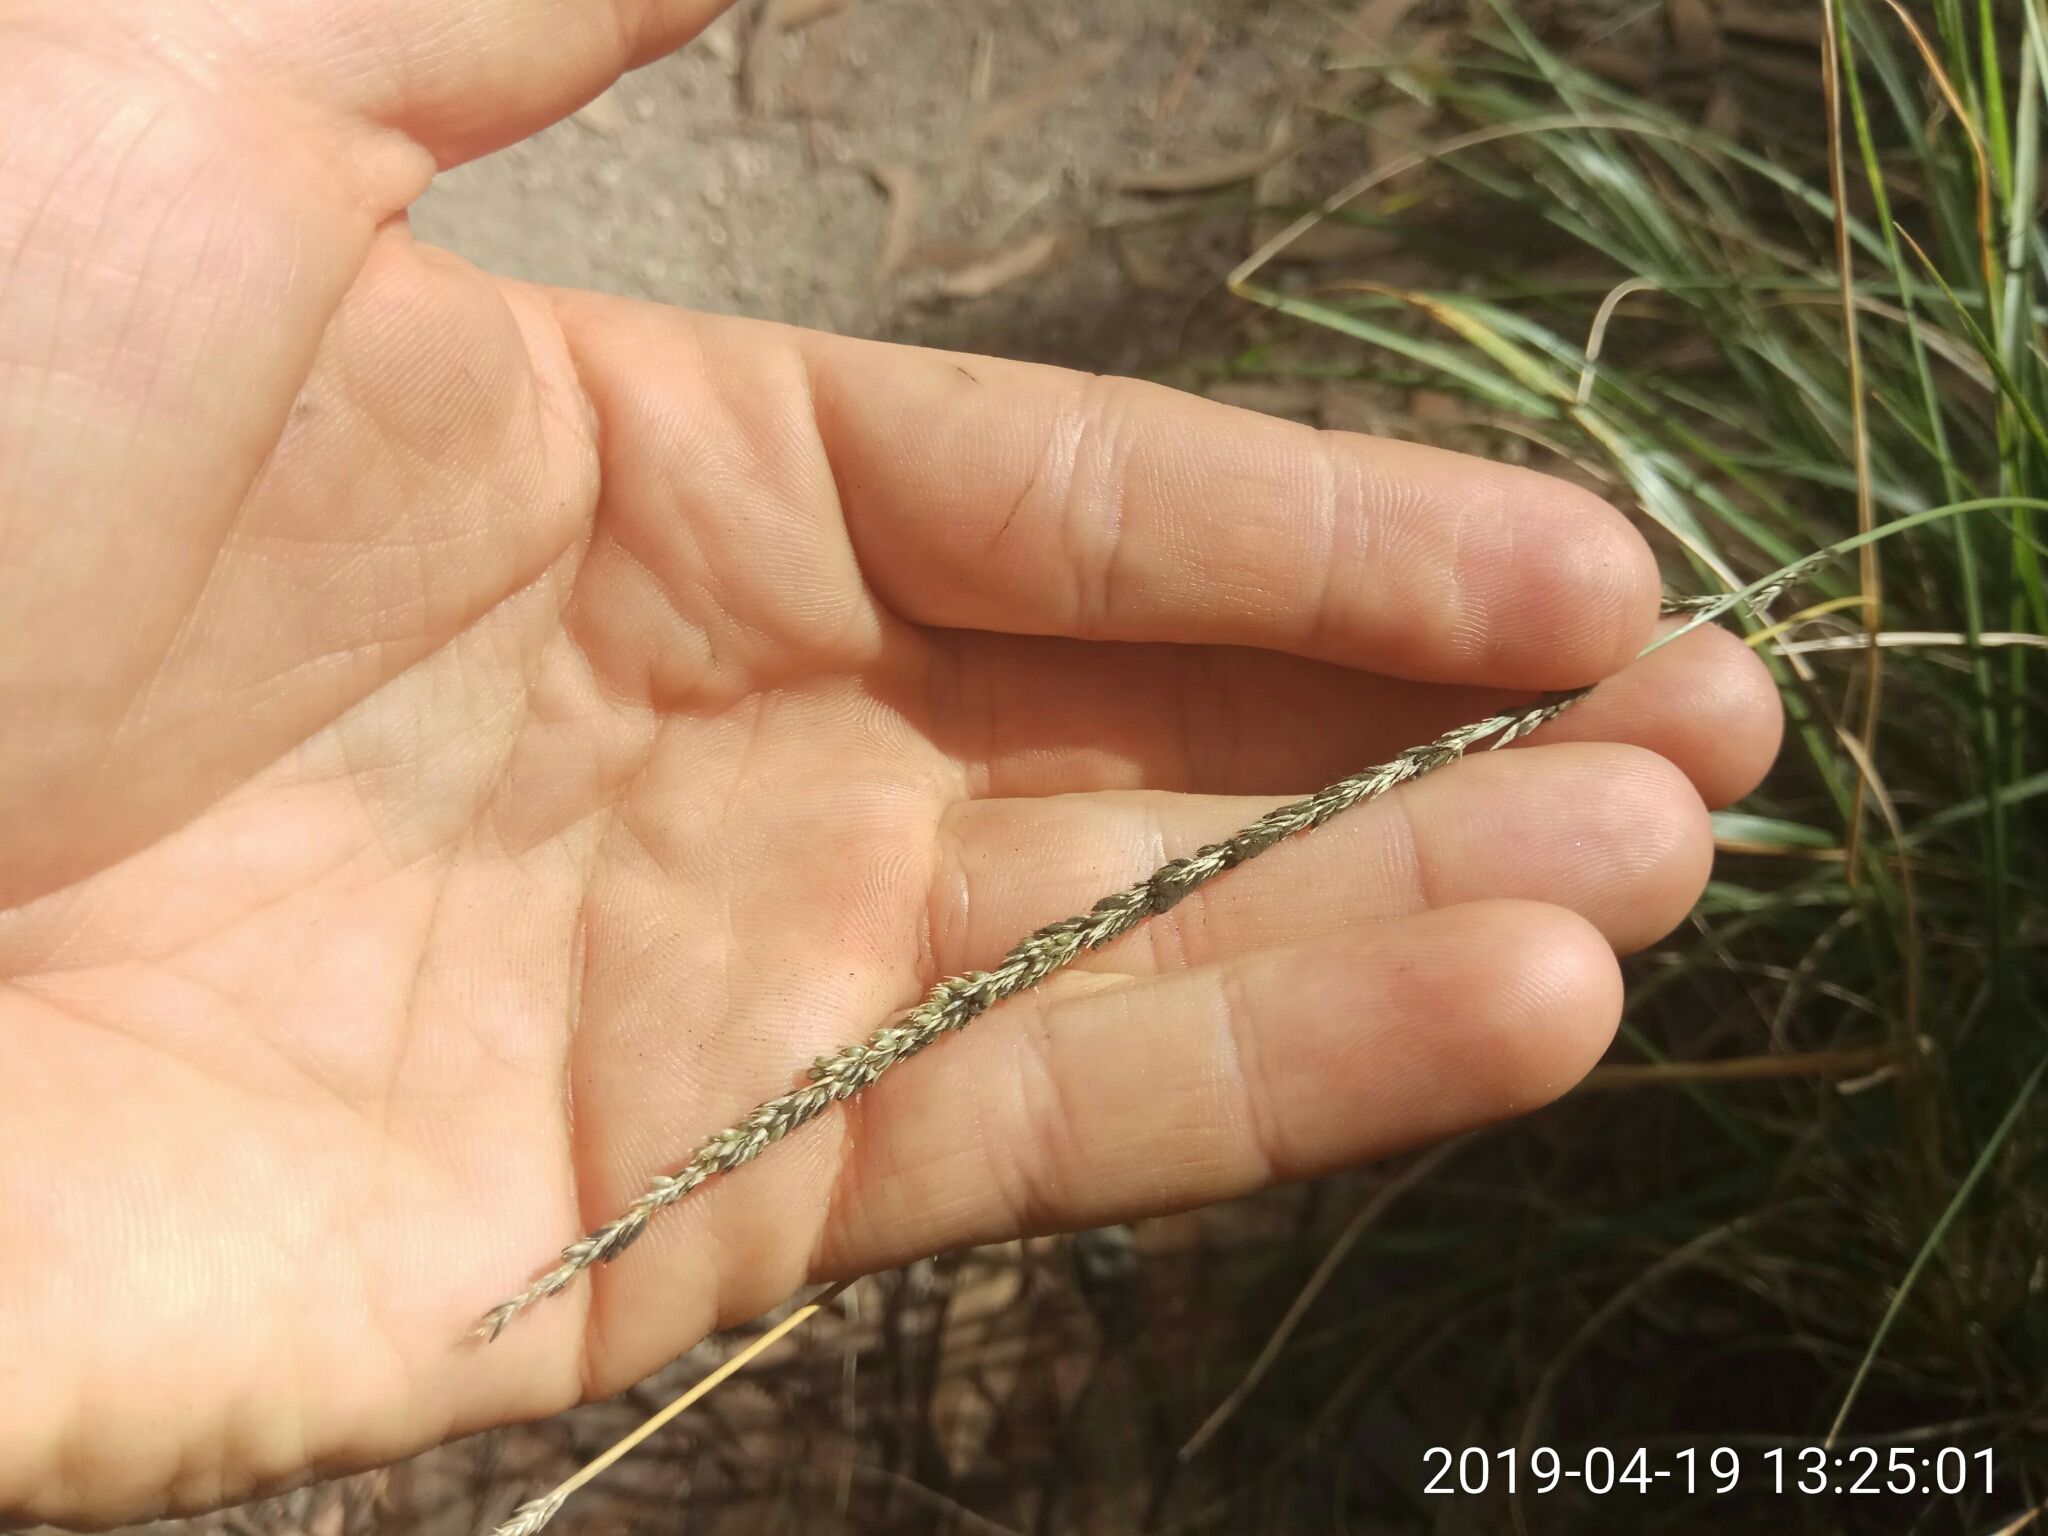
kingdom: Plantae
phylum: Tracheophyta
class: Liliopsida
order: Poales
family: Poaceae
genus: Sporobolus
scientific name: Sporobolus indicus
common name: Smut grass
